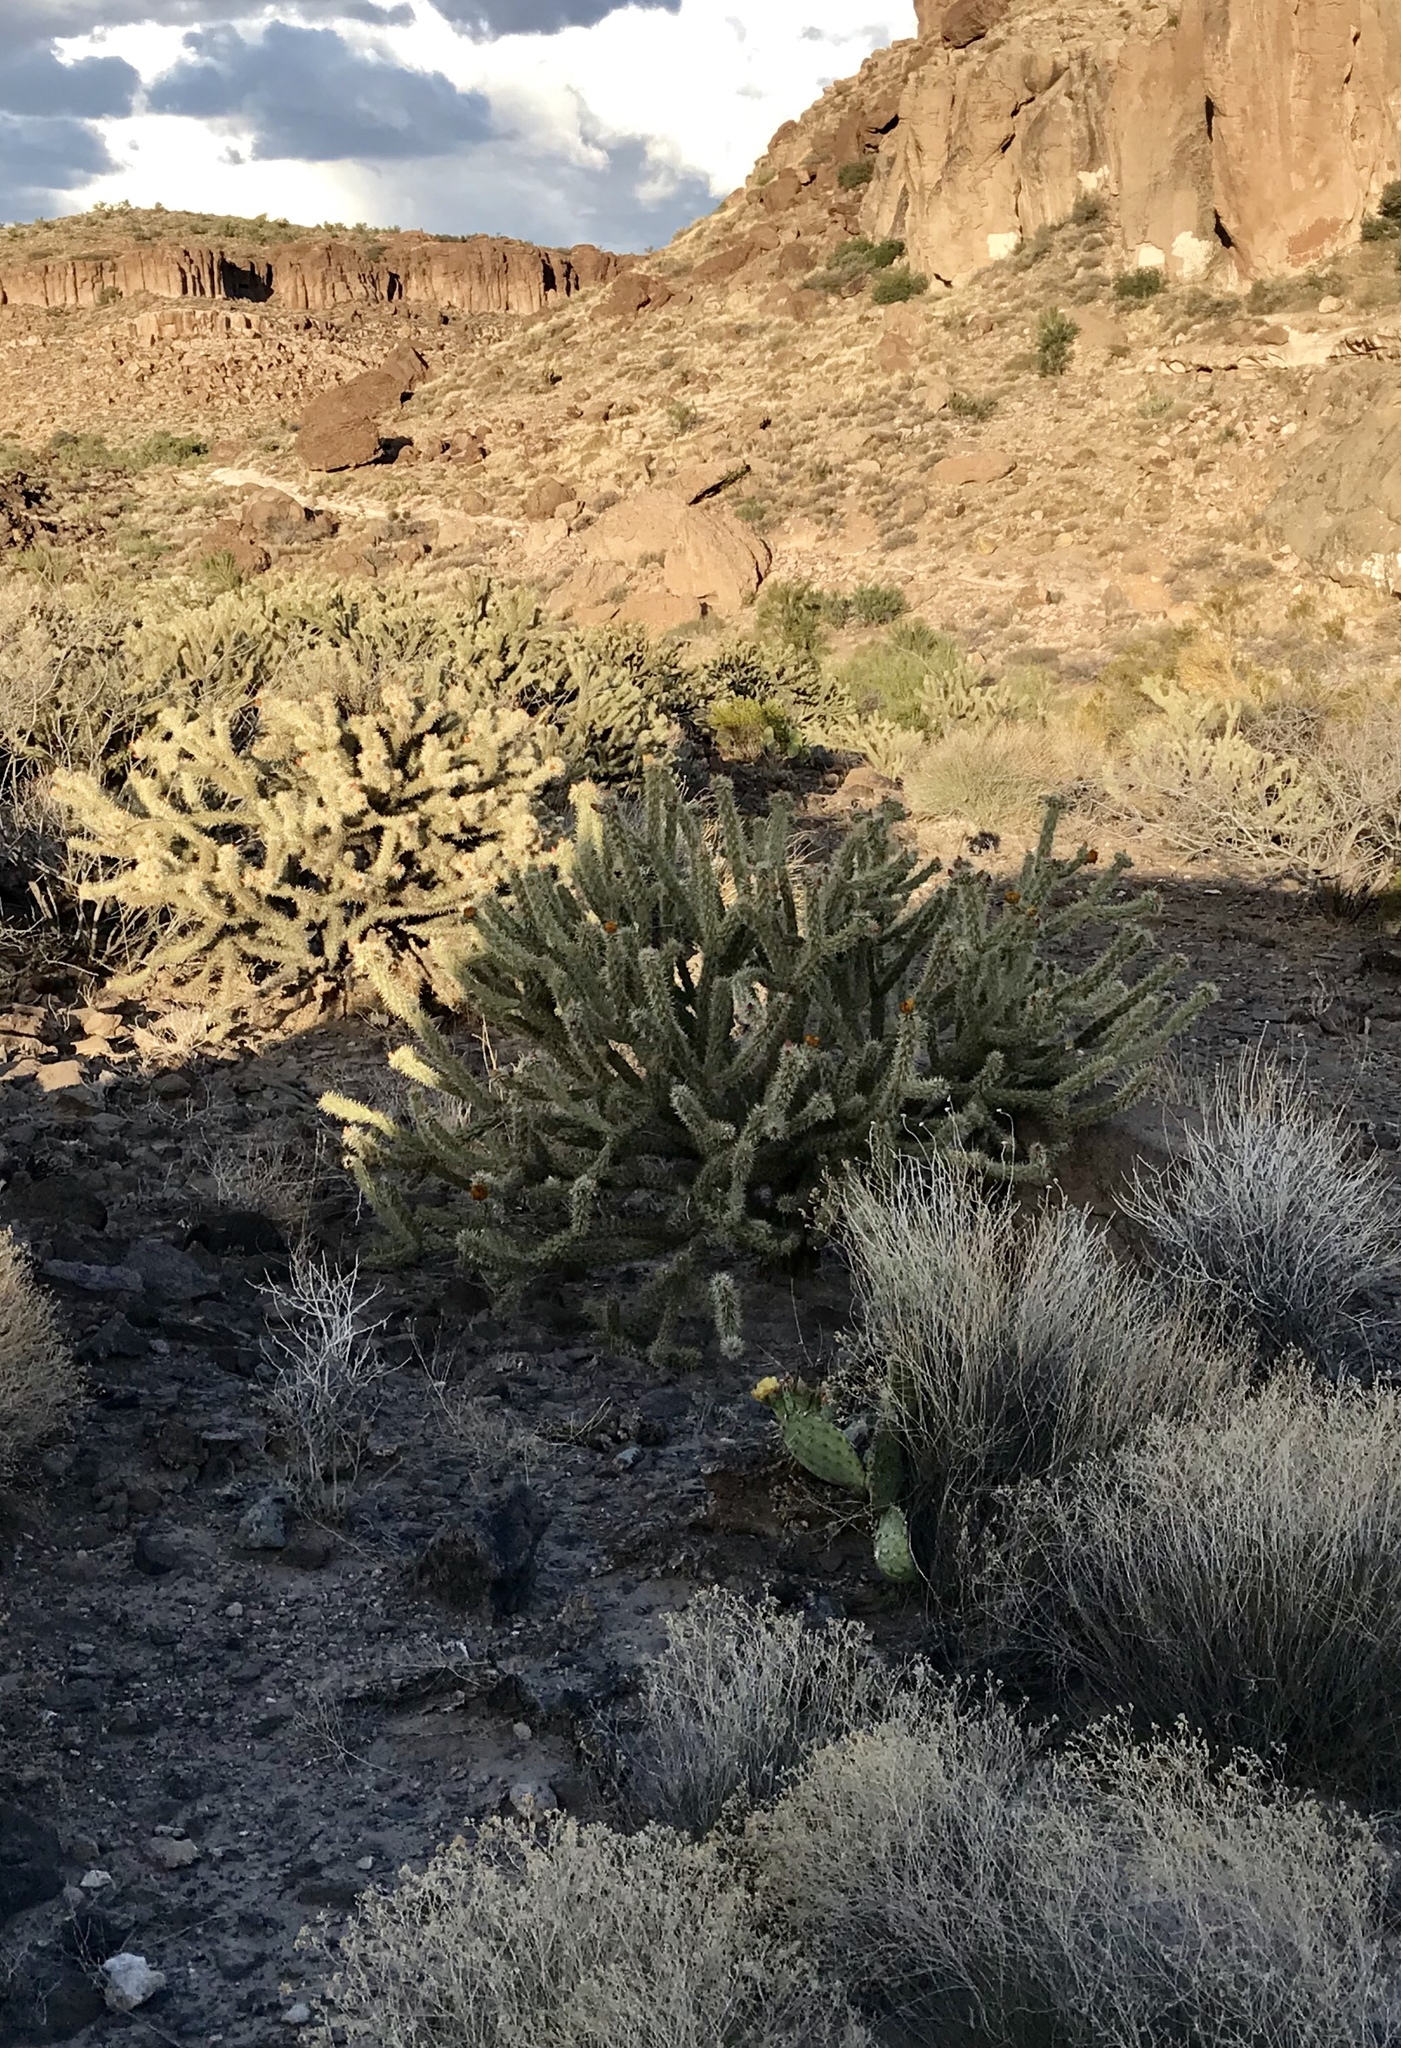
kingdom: Plantae
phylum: Tracheophyta
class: Magnoliopsida
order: Caryophyllales
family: Cactaceae
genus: Cylindropuntia
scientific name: Cylindropuntia acanthocarpa
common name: Buckhorn cholla
